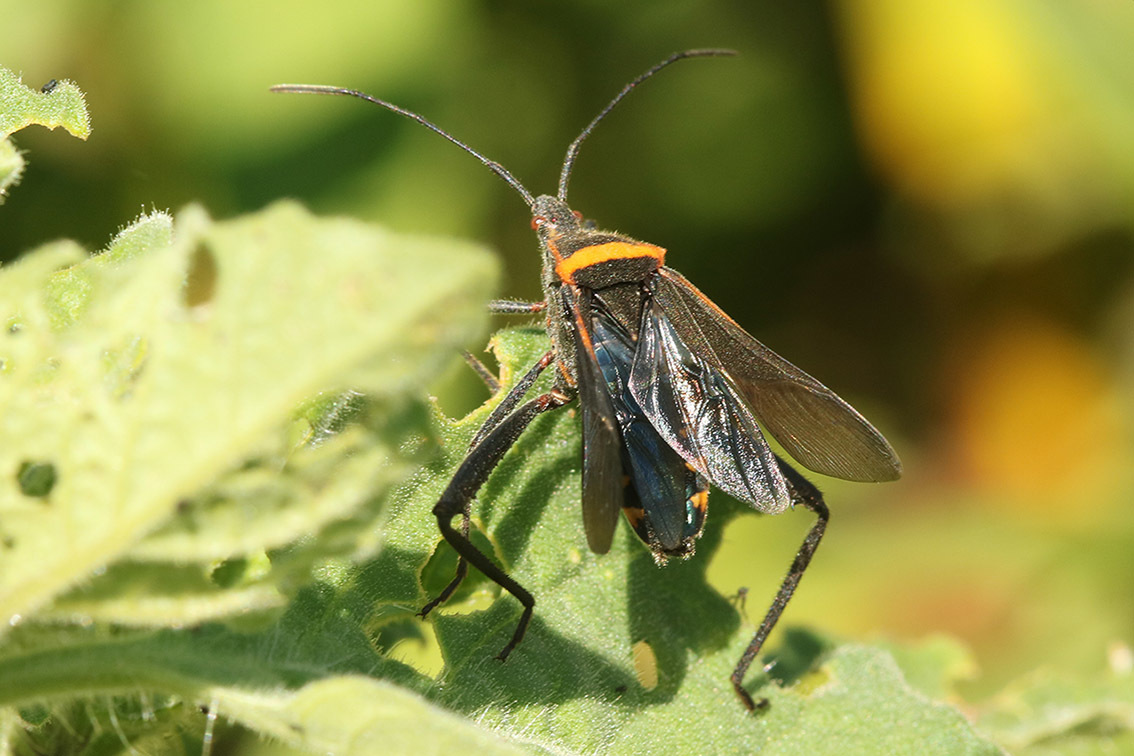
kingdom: Animalia
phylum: Arthropoda
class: Insecta
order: Hemiptera
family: Coreidae
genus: Phthiacnemia
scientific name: Phthiacnemia picta
